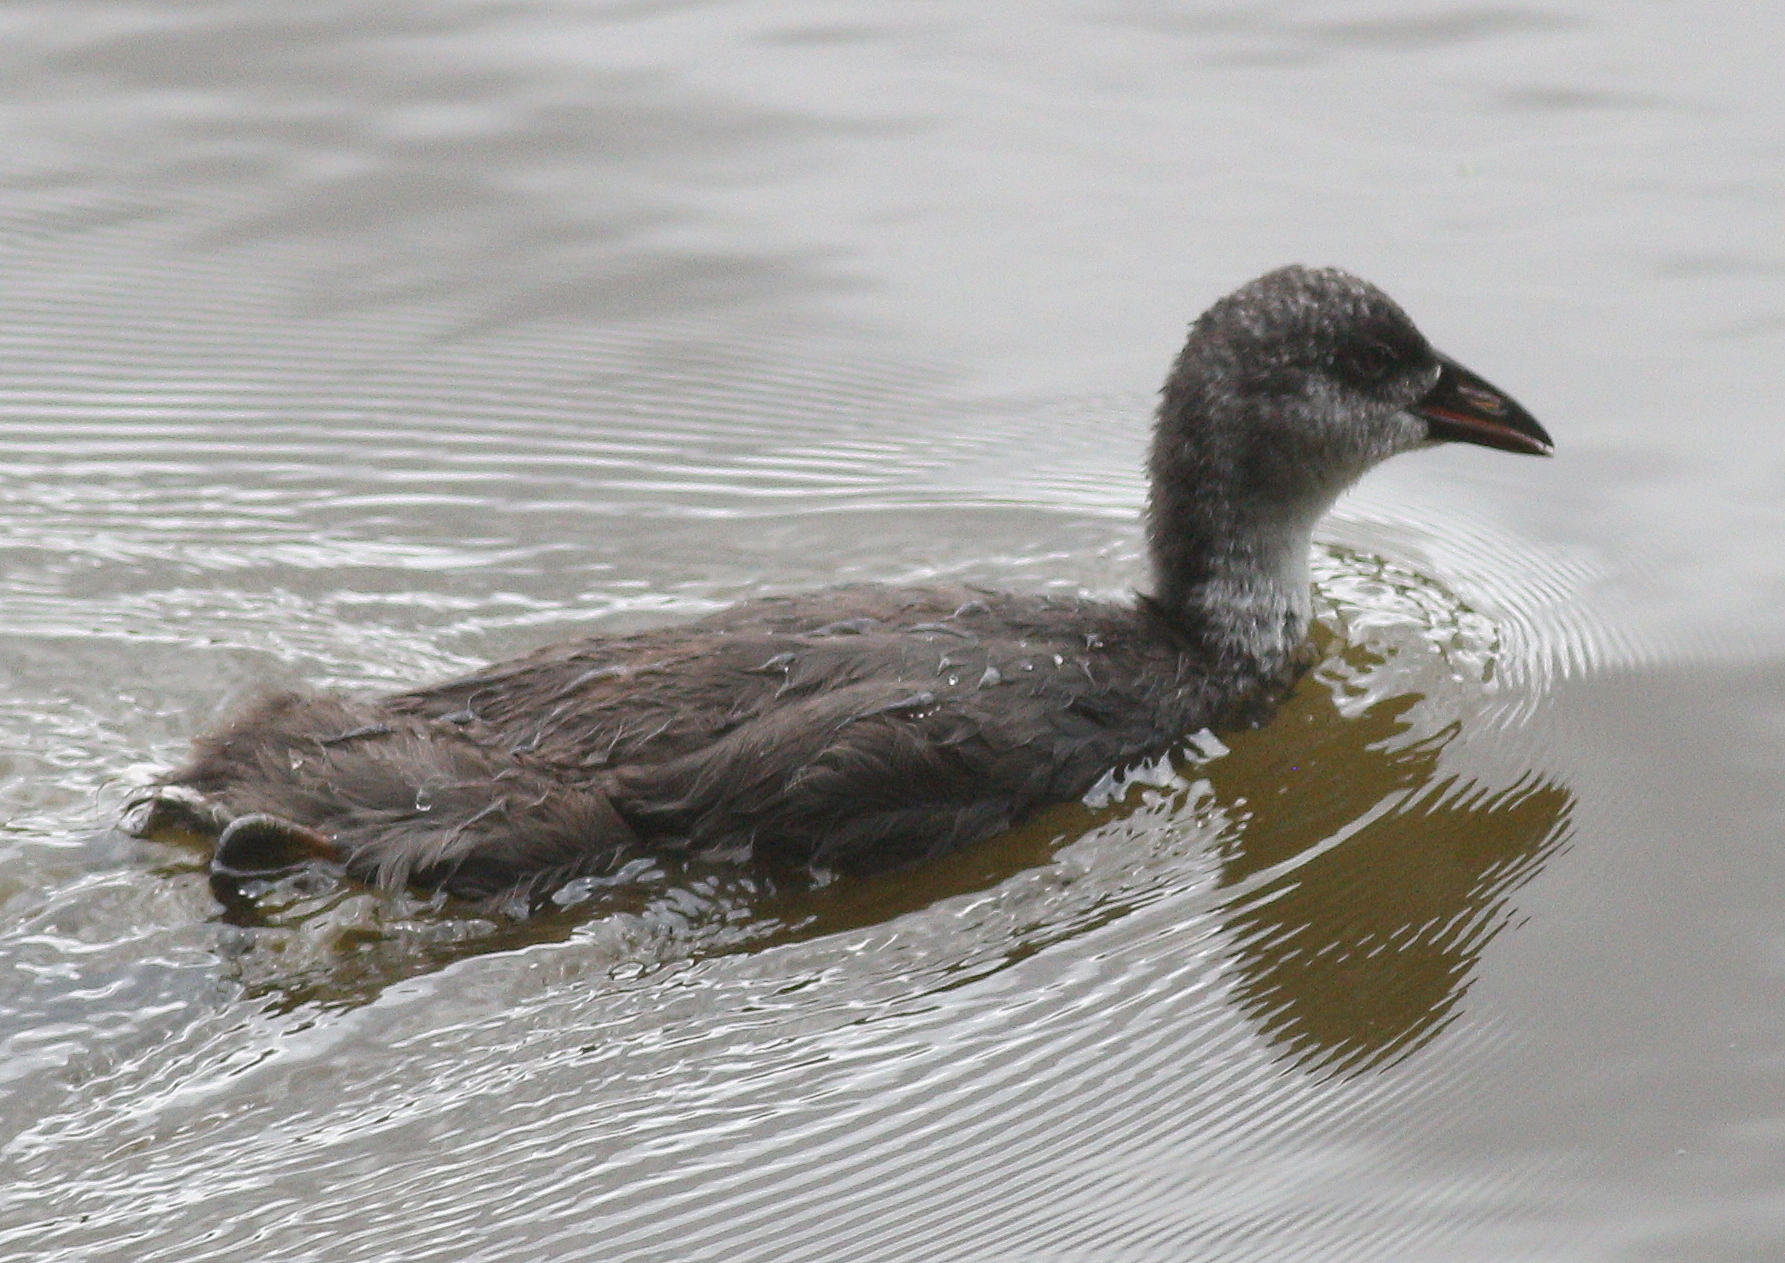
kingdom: Animalia
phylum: Chordata
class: Aves
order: Gruiformes
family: Rallidae
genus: Gallinula
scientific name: Gallinula chloropus
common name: Common moorhen
